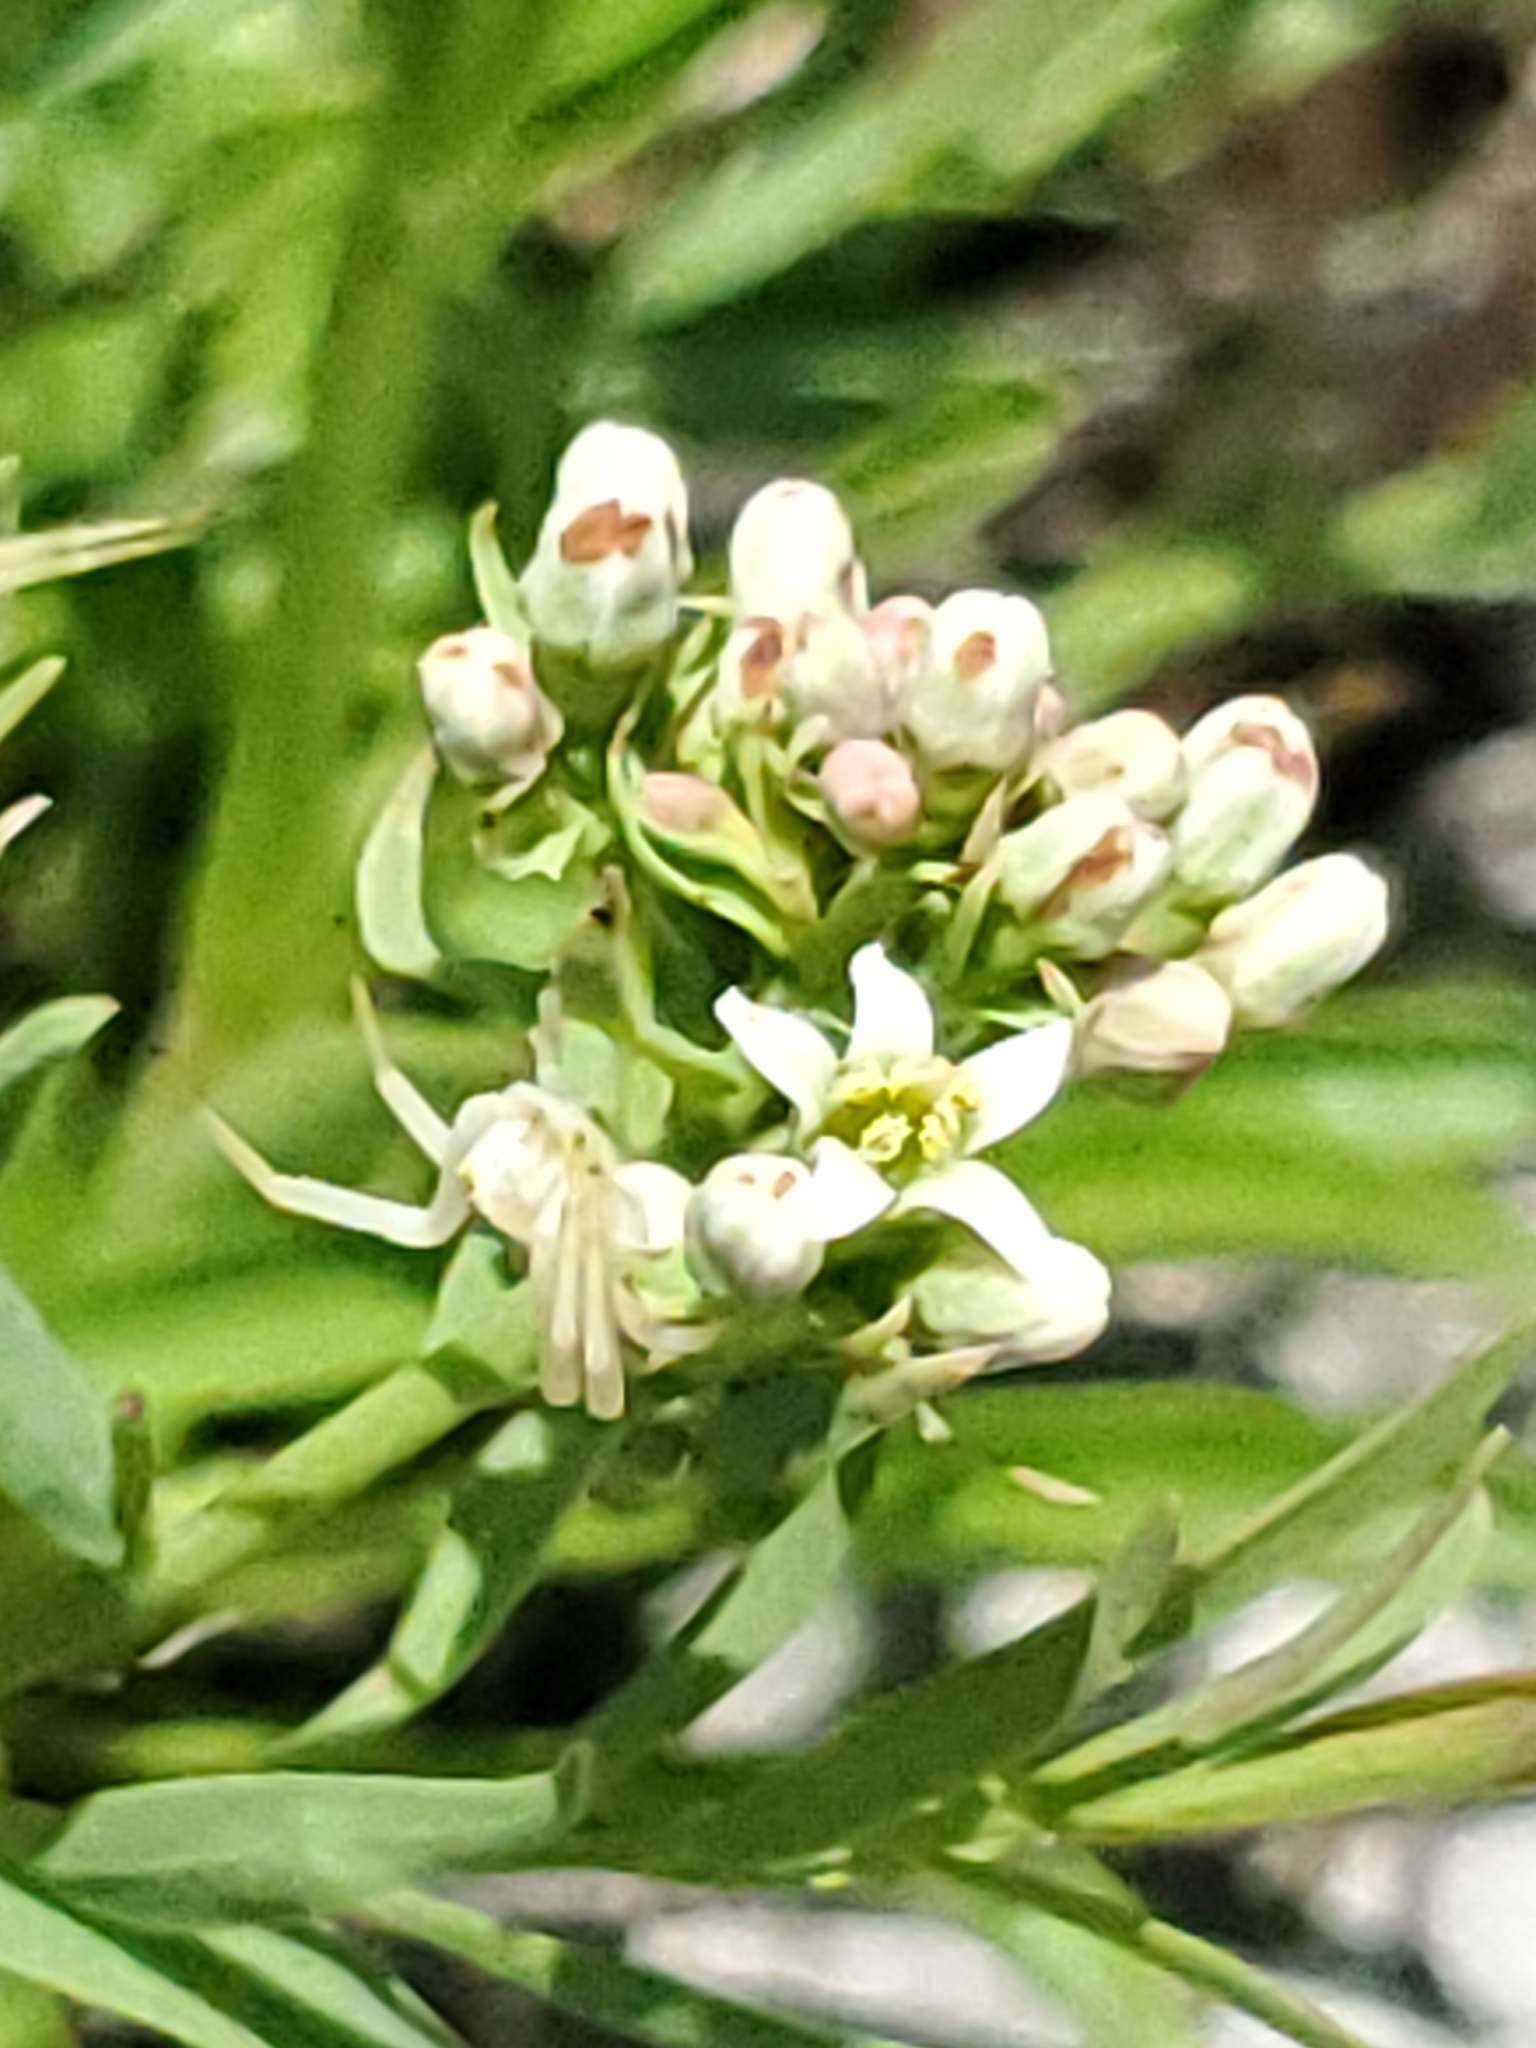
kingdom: Plantae
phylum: Tracheophyta
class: Magnoliopsida
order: Santalales
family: Comandraceae
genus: Comandra
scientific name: Comandra umbellata
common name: Bastard toadflax
